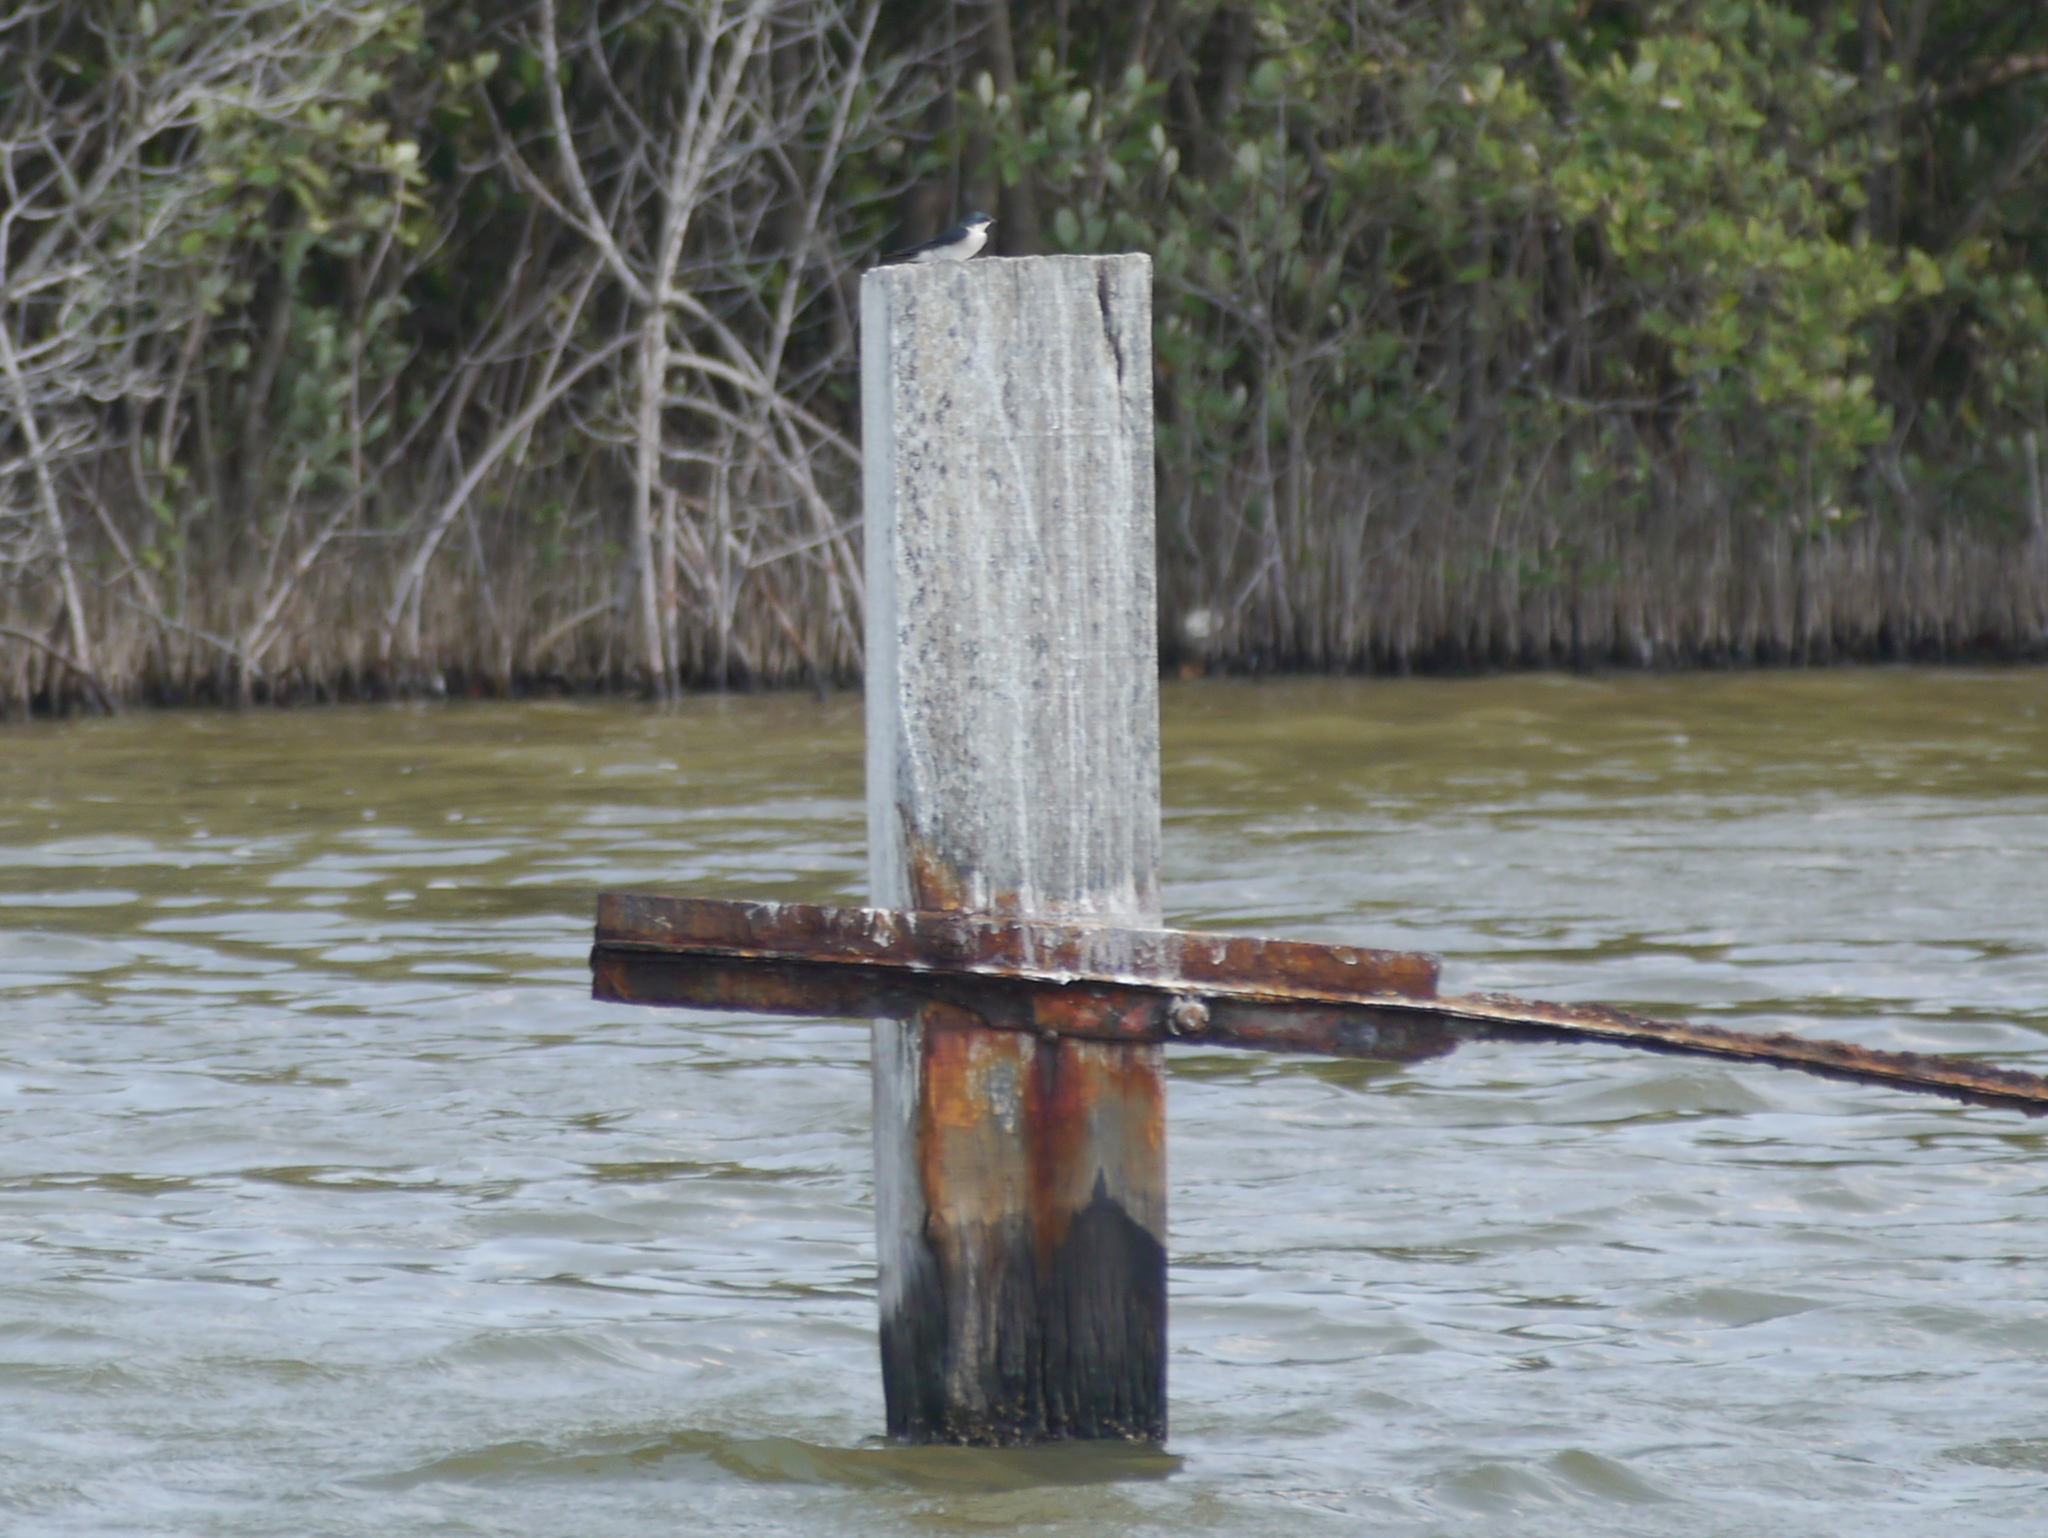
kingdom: Animalia
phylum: Chordata
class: Aves
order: Passeriformes
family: Hirundinidae
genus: Tachycineta
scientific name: Tachycineta albilinea
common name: Mangrove swallow
